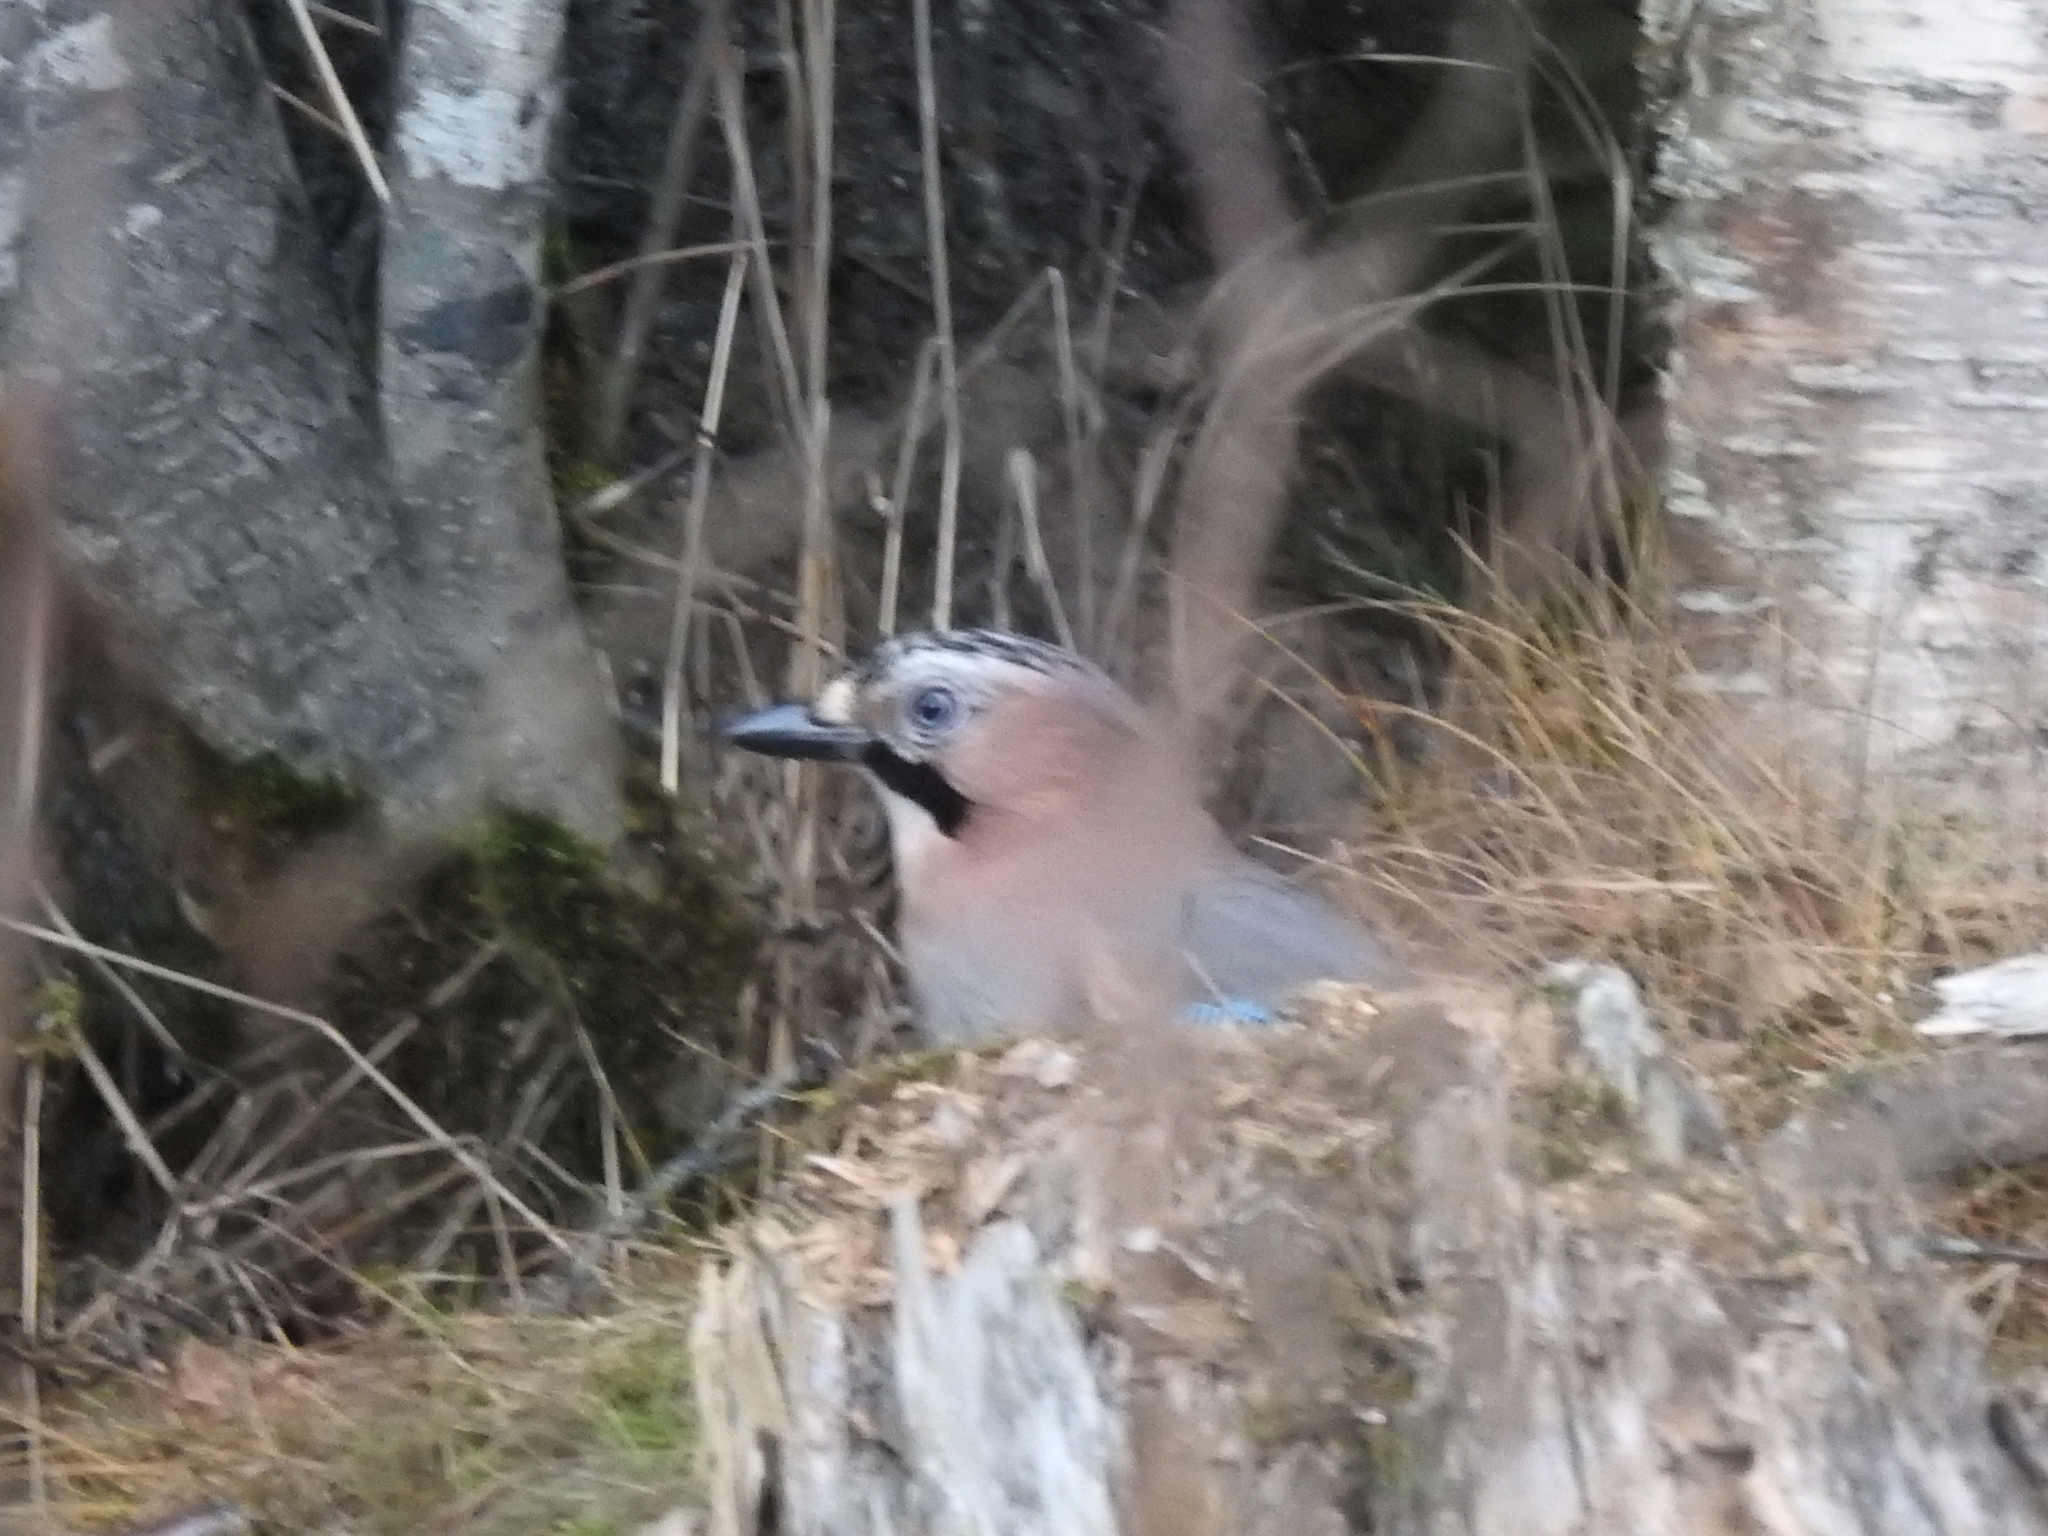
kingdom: Animalia
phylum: Chordata
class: Aves
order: Passeriformes
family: Corvidae
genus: Garrulus
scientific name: Garrulus glandarius
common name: Eurasian jay
